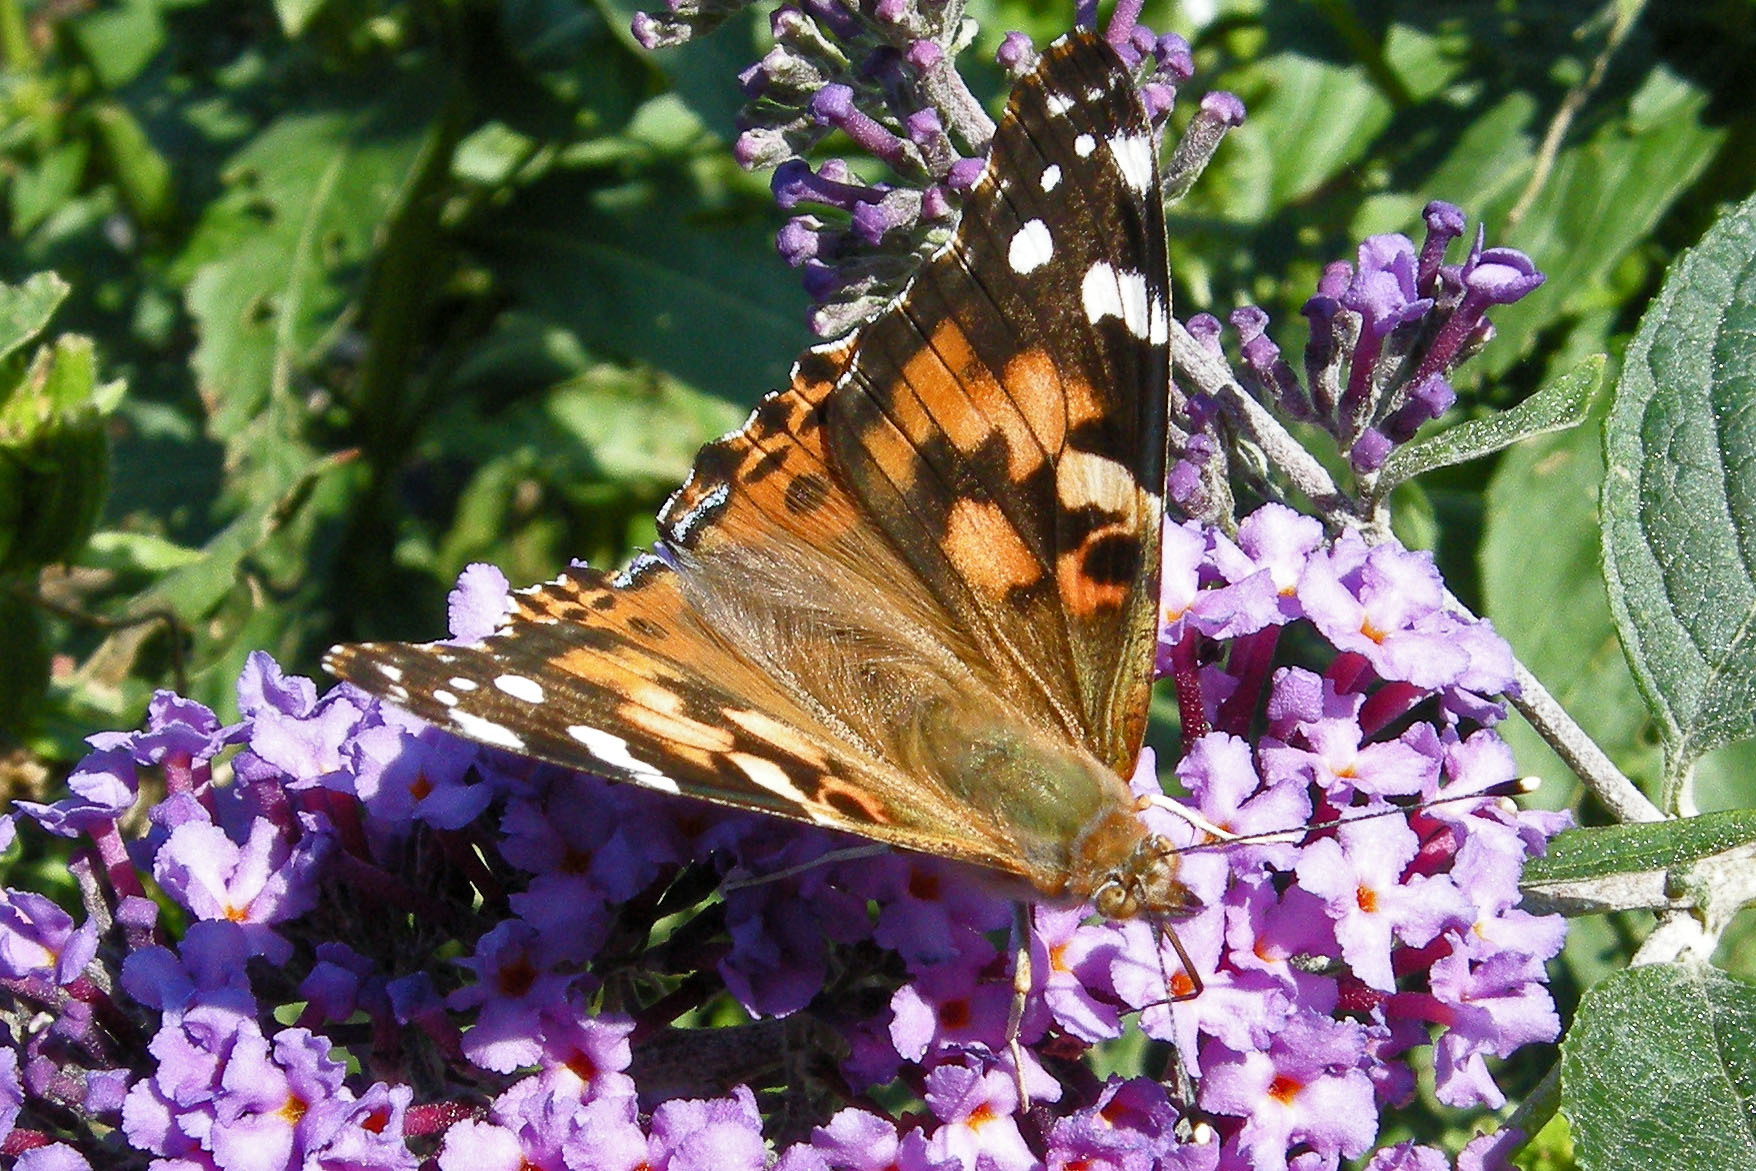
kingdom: Animalia
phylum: Arthropoda
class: Insecta
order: Lepidoptera
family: Nymphalidae
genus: Vanessa
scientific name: Vanessa cardui
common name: Painted lady
